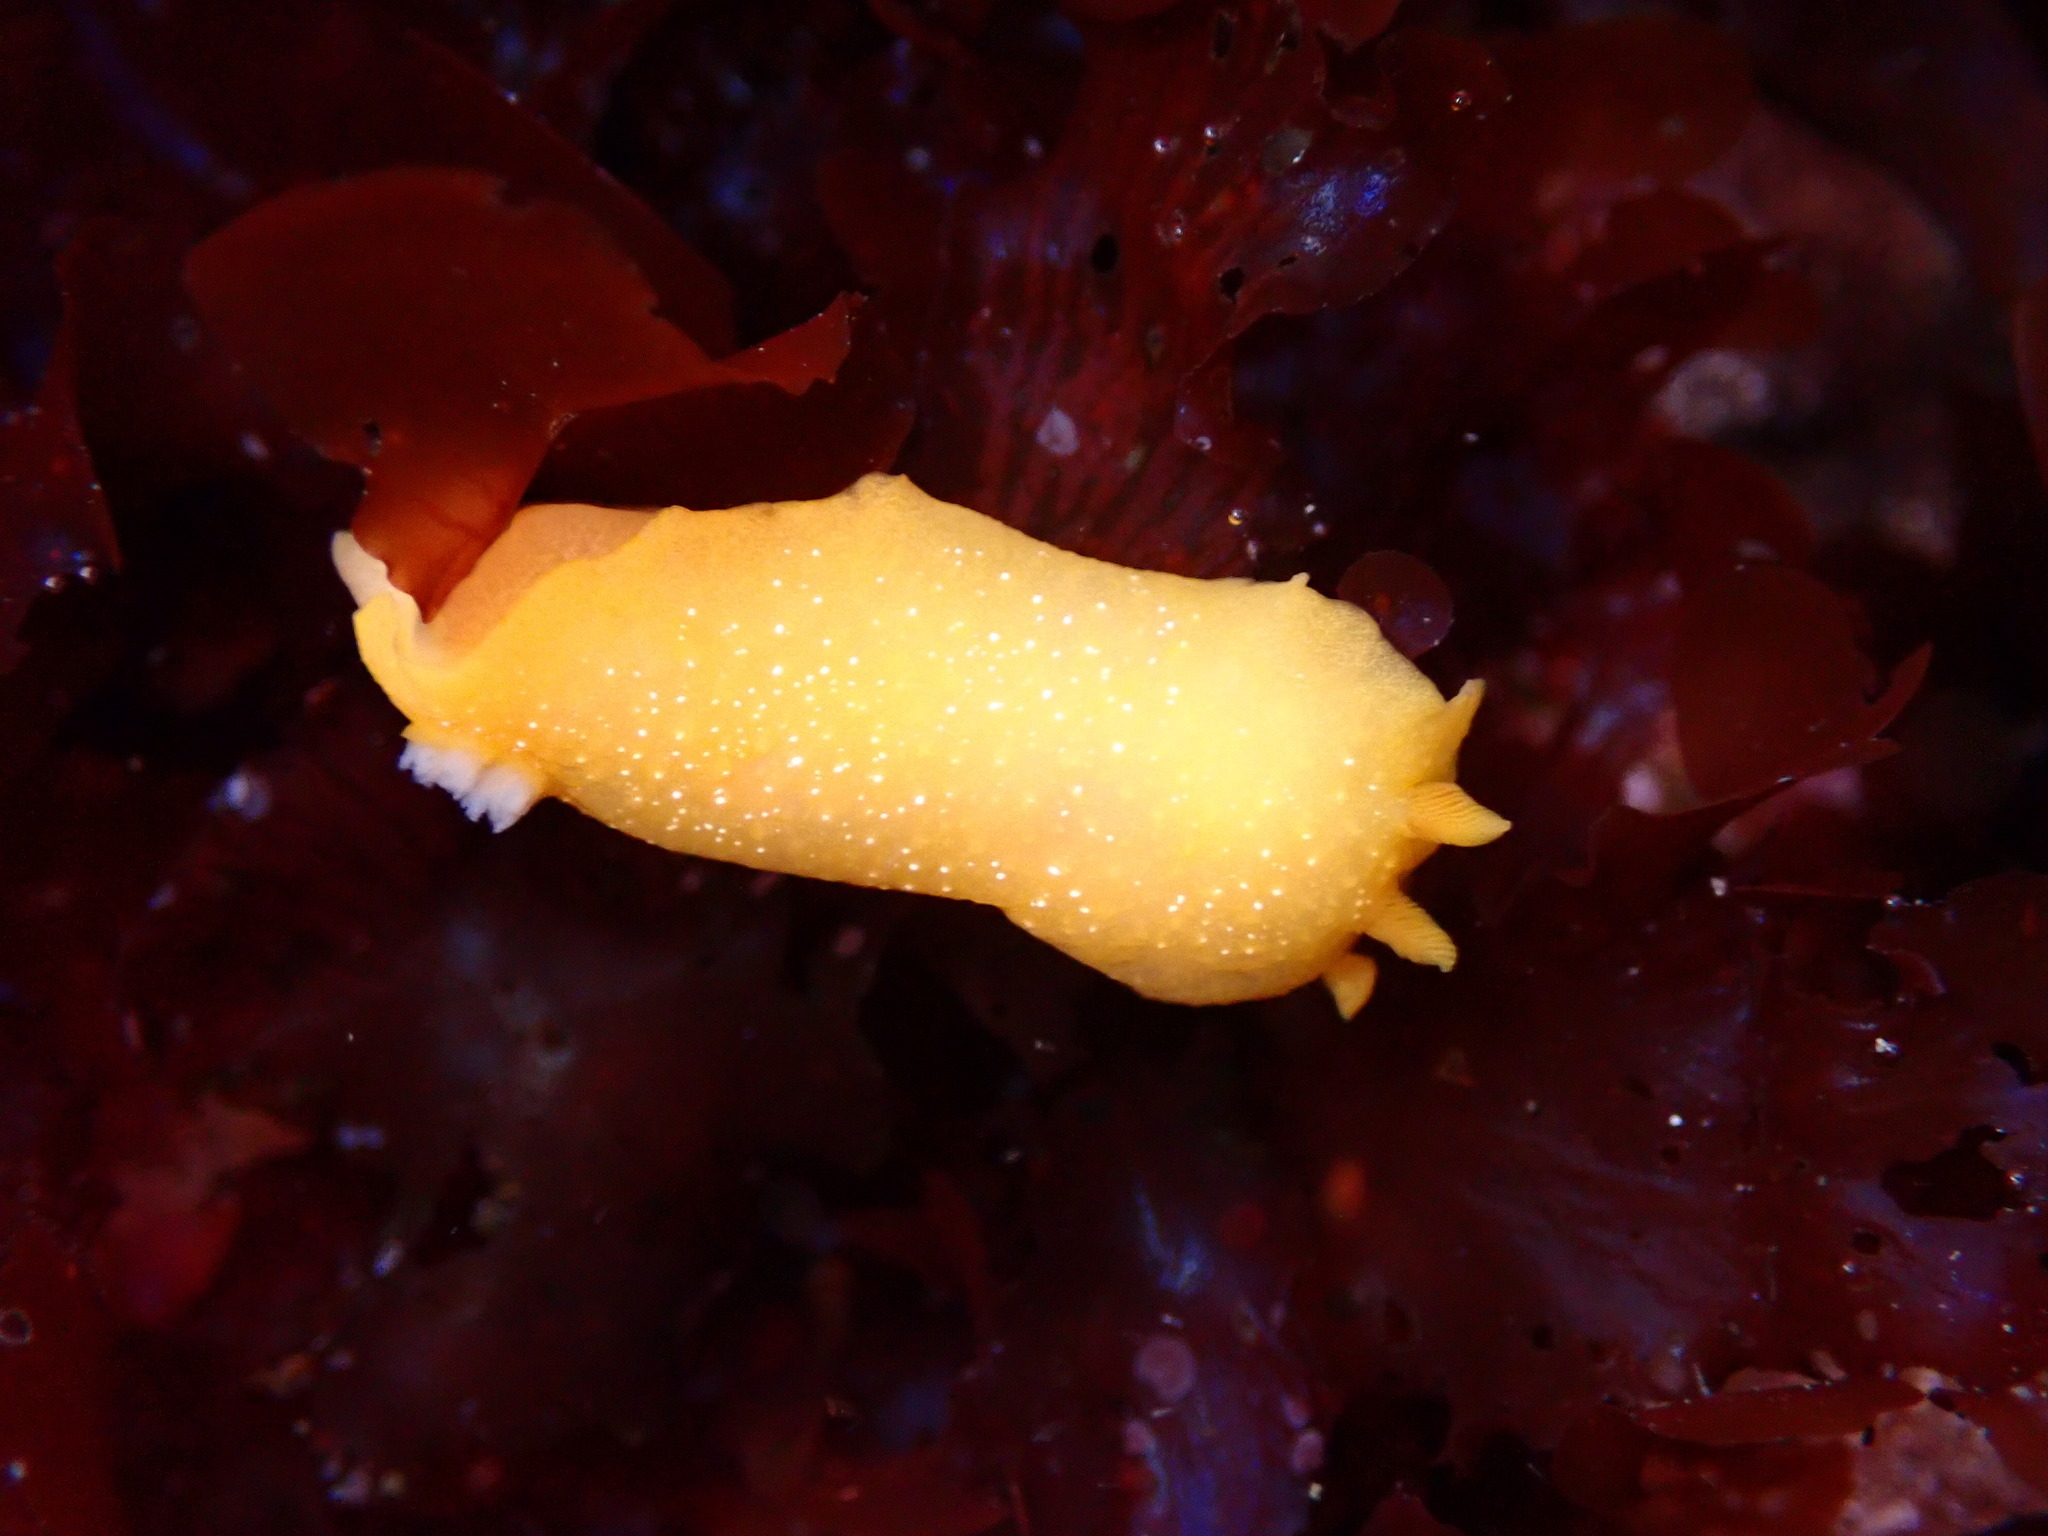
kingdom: Animalia
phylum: Mollusca
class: Gastropoda
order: Nudibranchia
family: Dendrodorididae
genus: Doriopsilla
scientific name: Doriopsilla fulva
